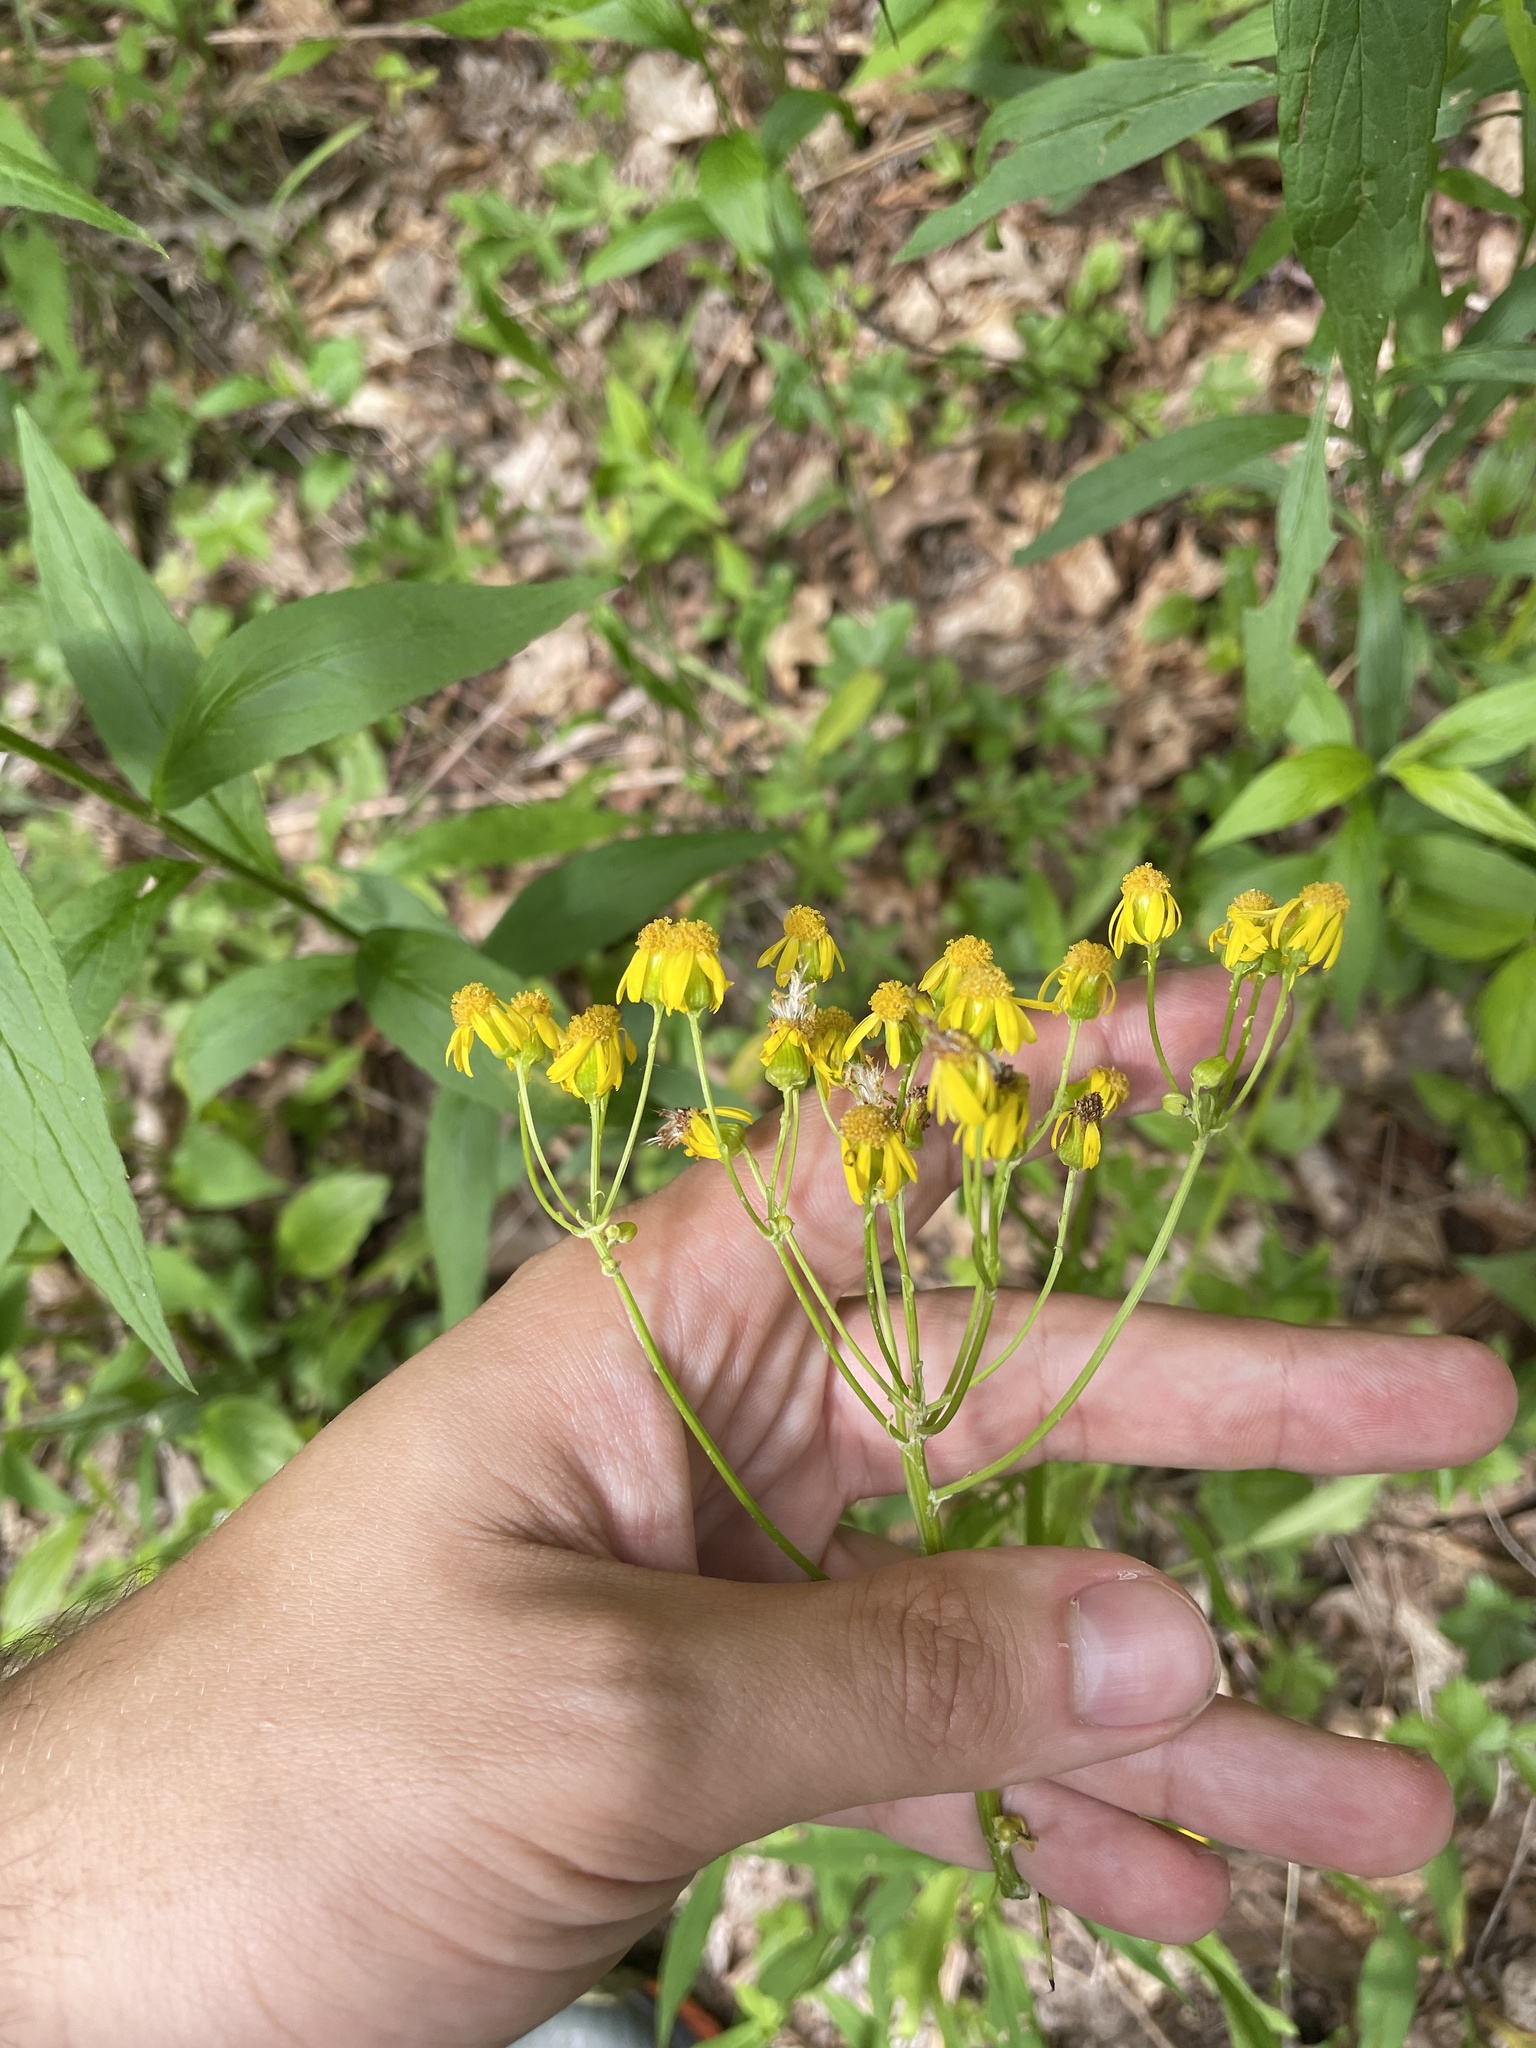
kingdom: Plantae
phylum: Tracheophyta
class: Magnoliopsida
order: Asterales
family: Asteraceae
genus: Packera
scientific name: Packera anonyma
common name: Small ragwort
